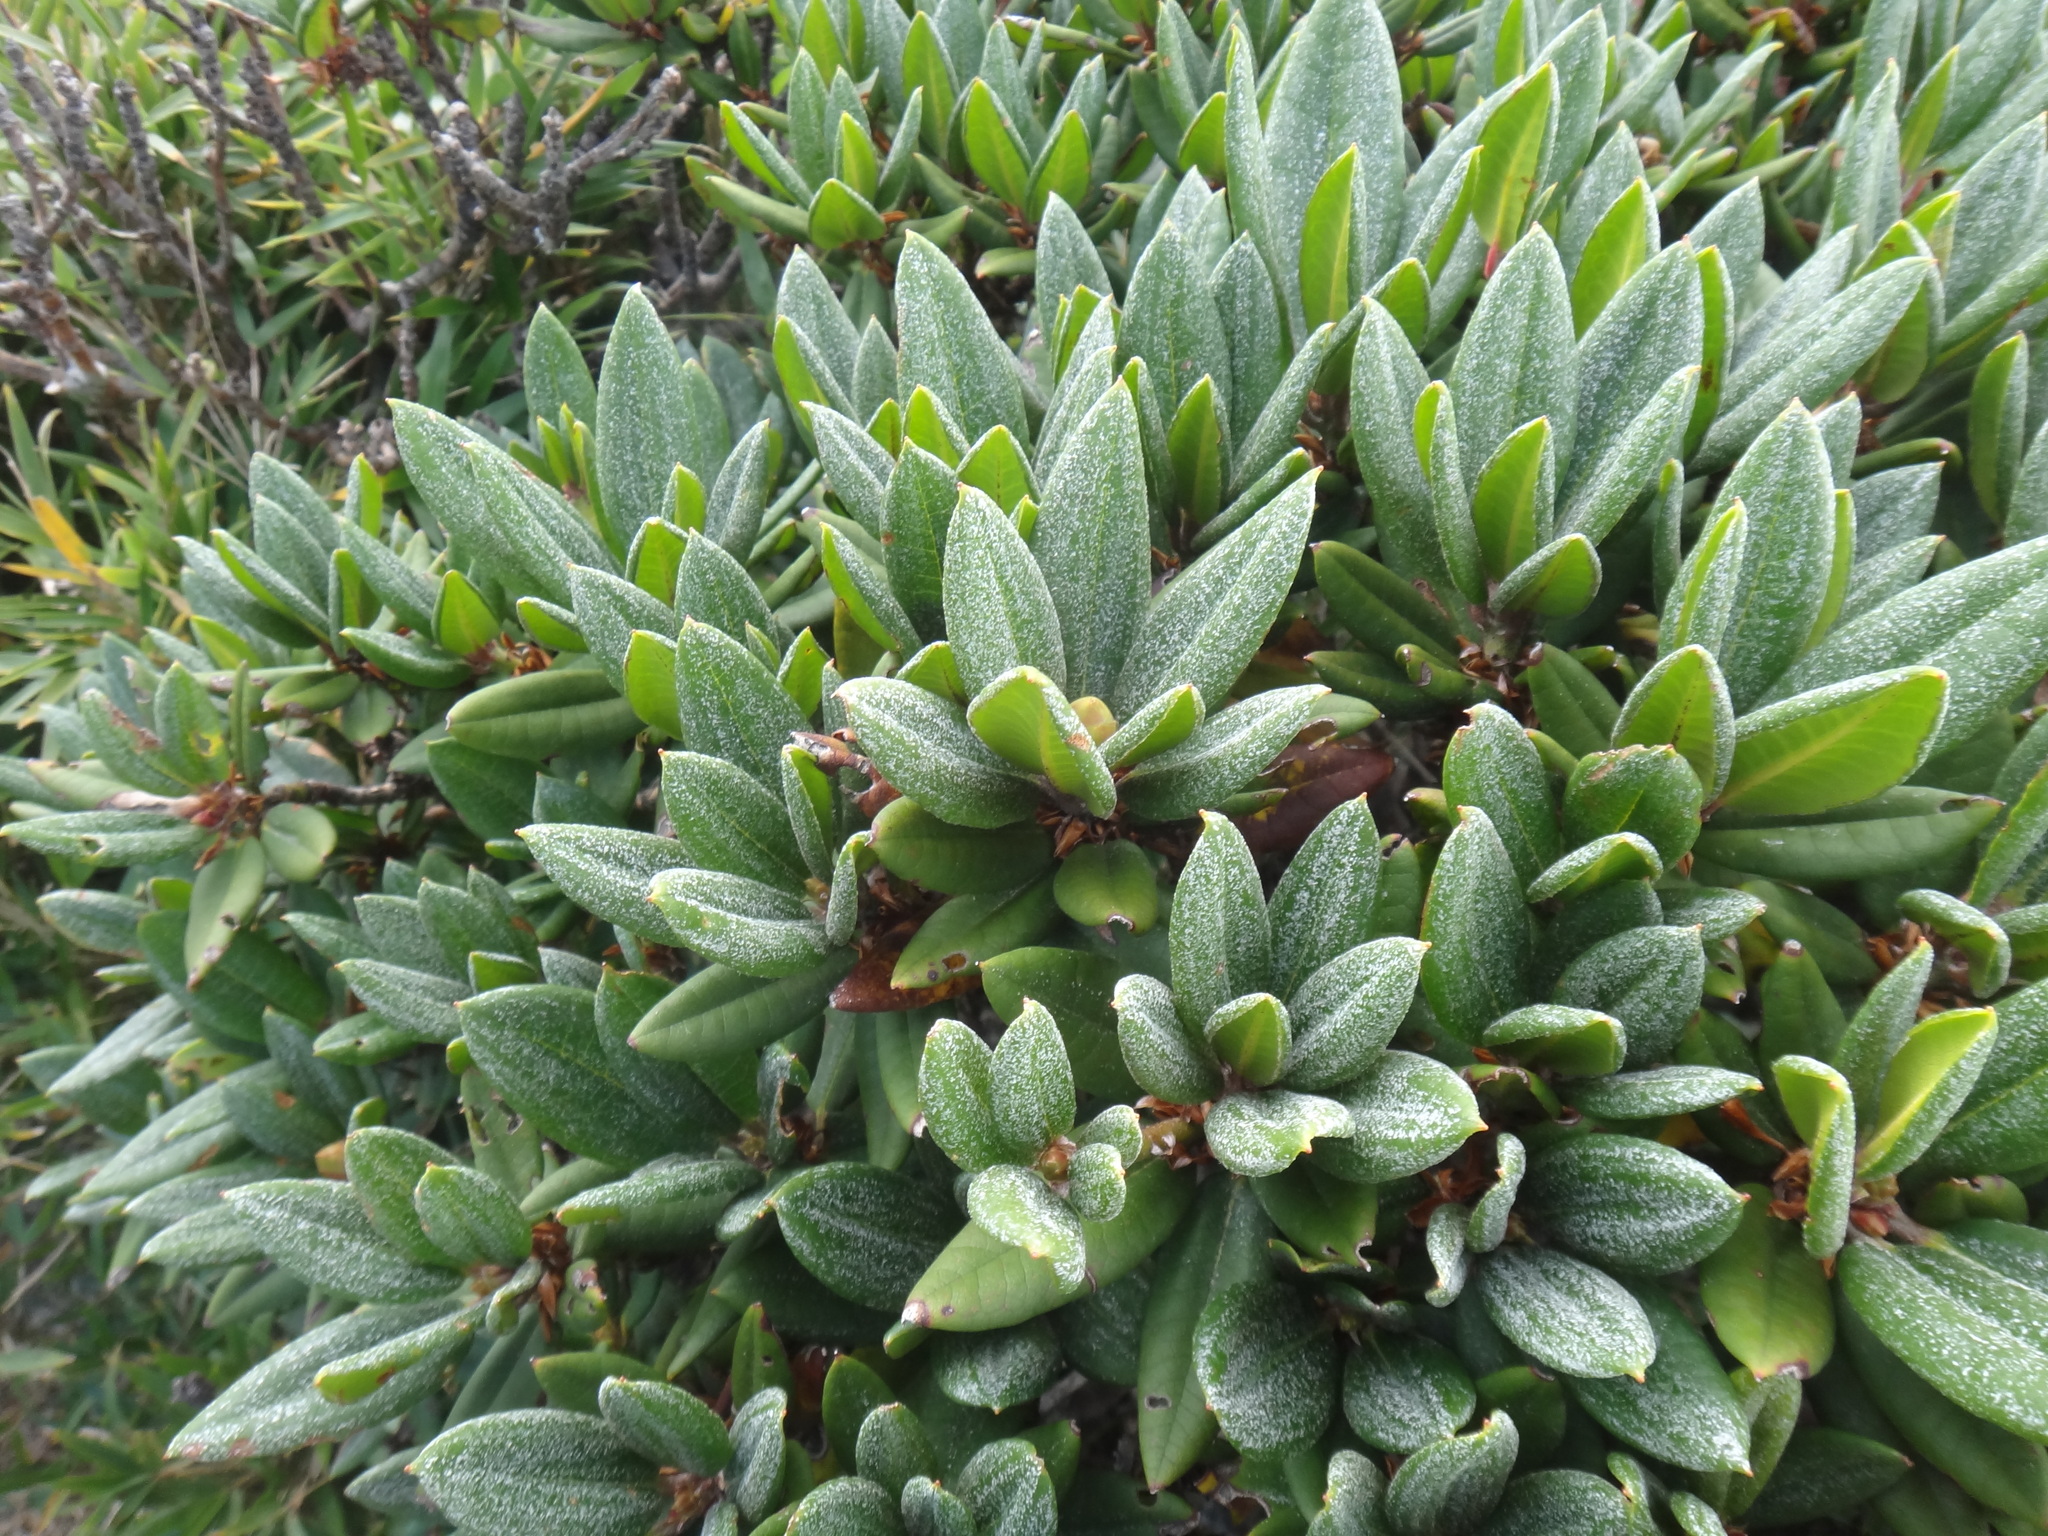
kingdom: Plantae
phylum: Tracheophyta
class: Magnoliopsida
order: Ericales
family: Ericaceae
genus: Rhododendron
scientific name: Rhododendron pseudochrysanthum
